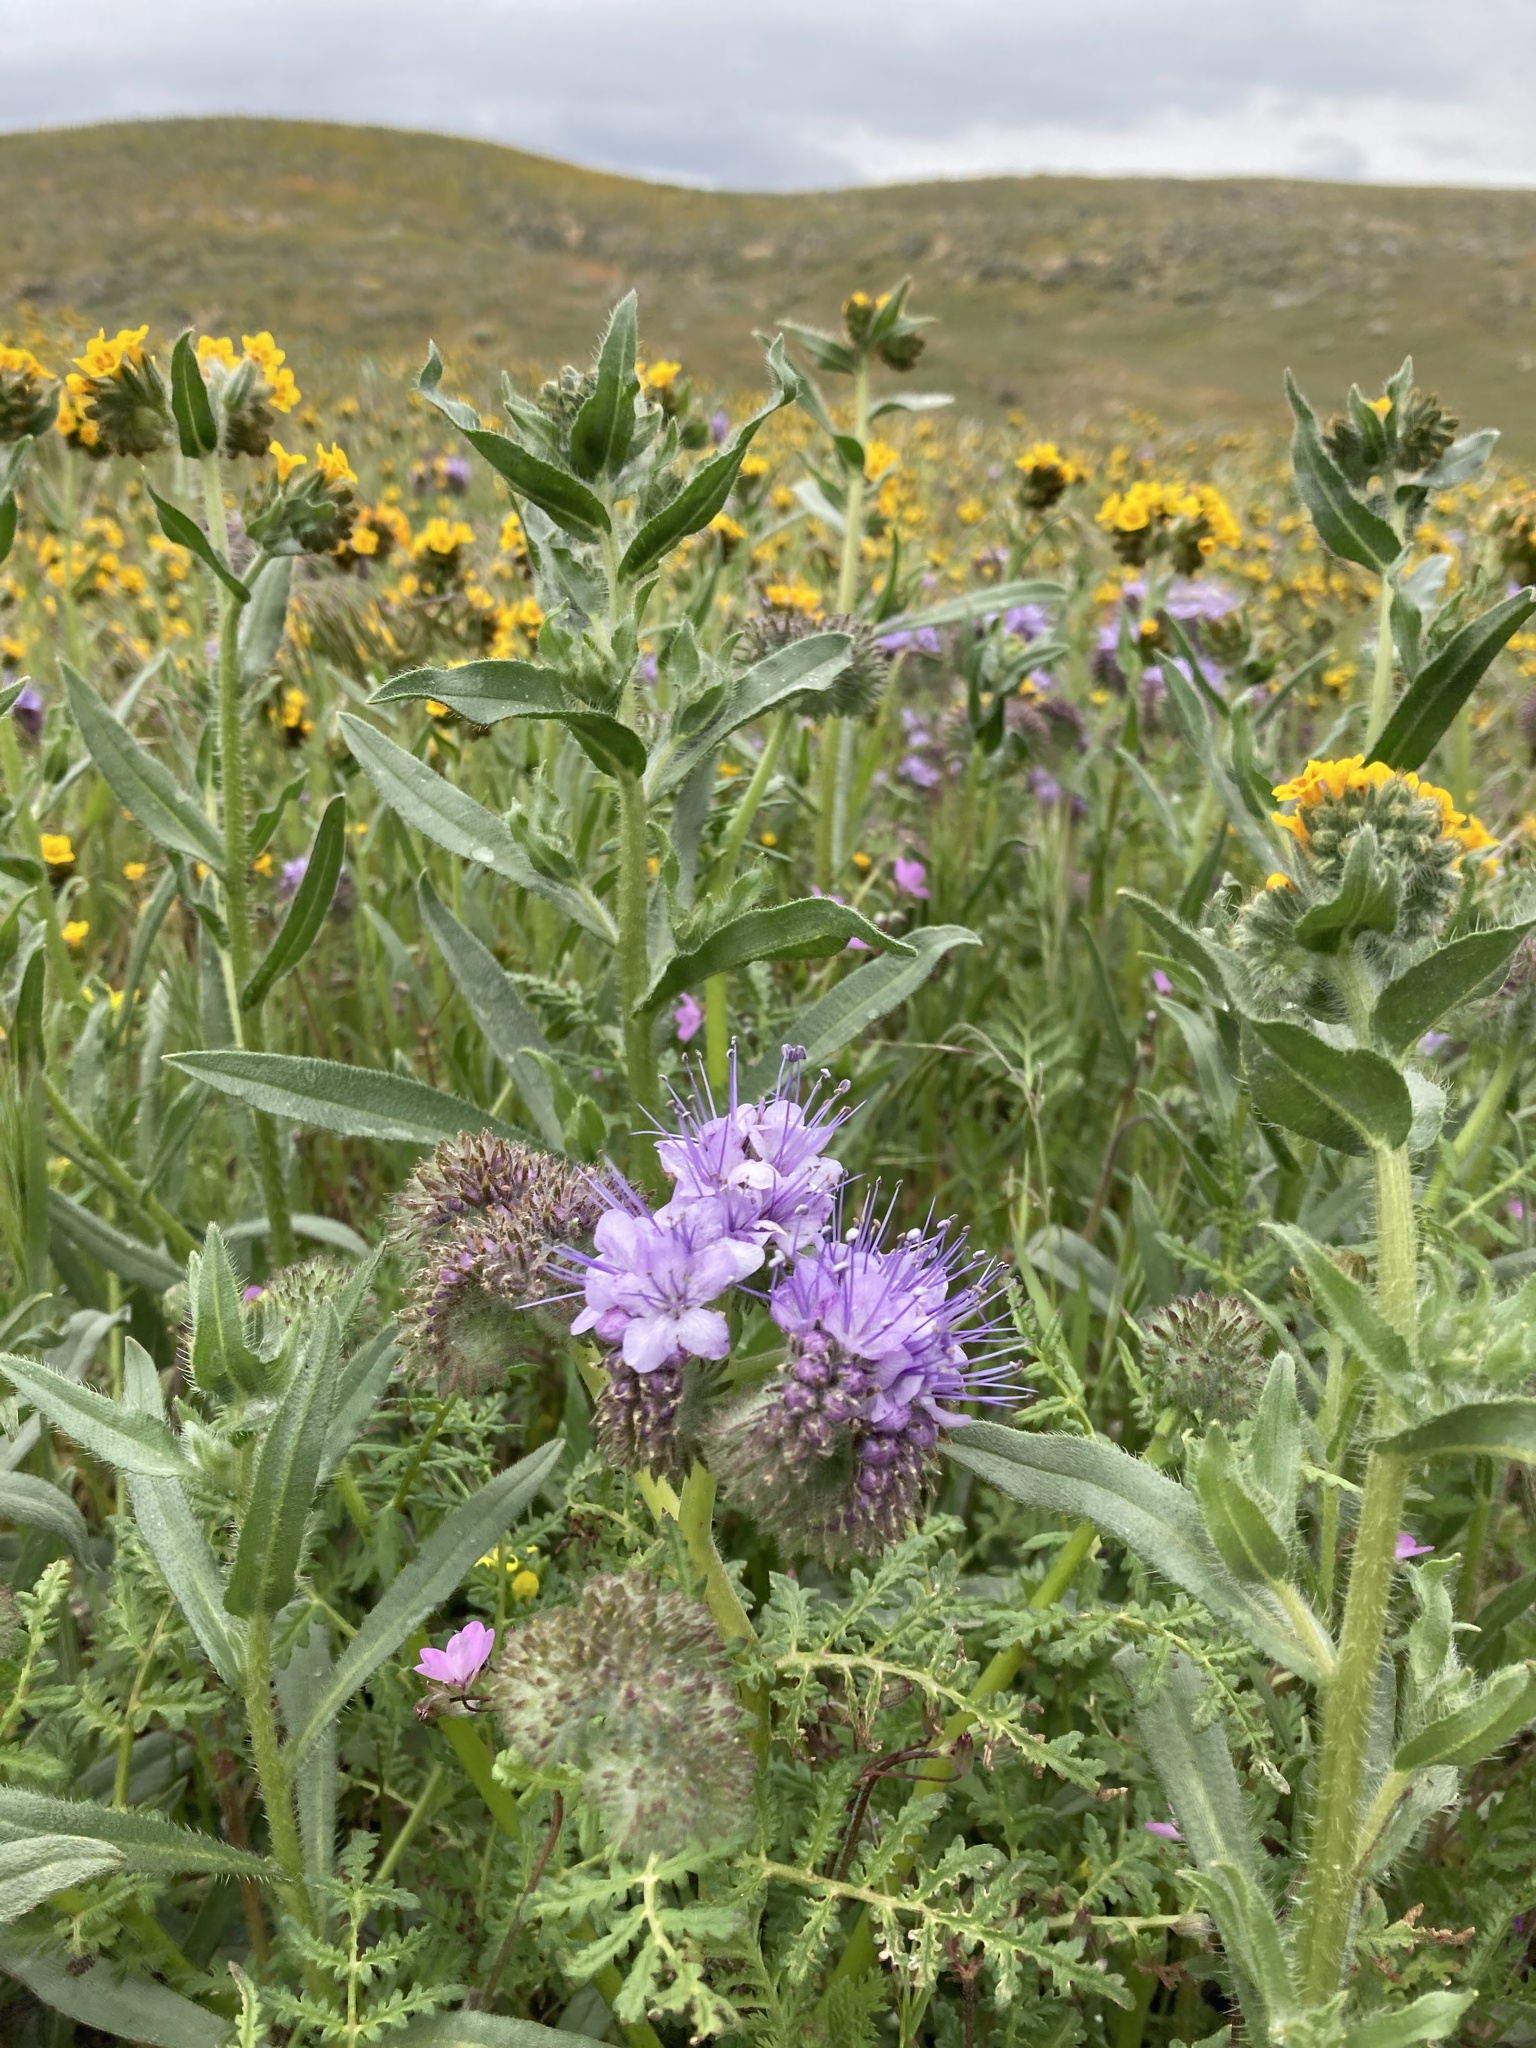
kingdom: Plantae
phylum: Tracheophyta
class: Magnoliopsida
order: Boraginales
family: Hydrophyllaceae
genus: Phacelia
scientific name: Phacelia tanacetifolia
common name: Phacelia
